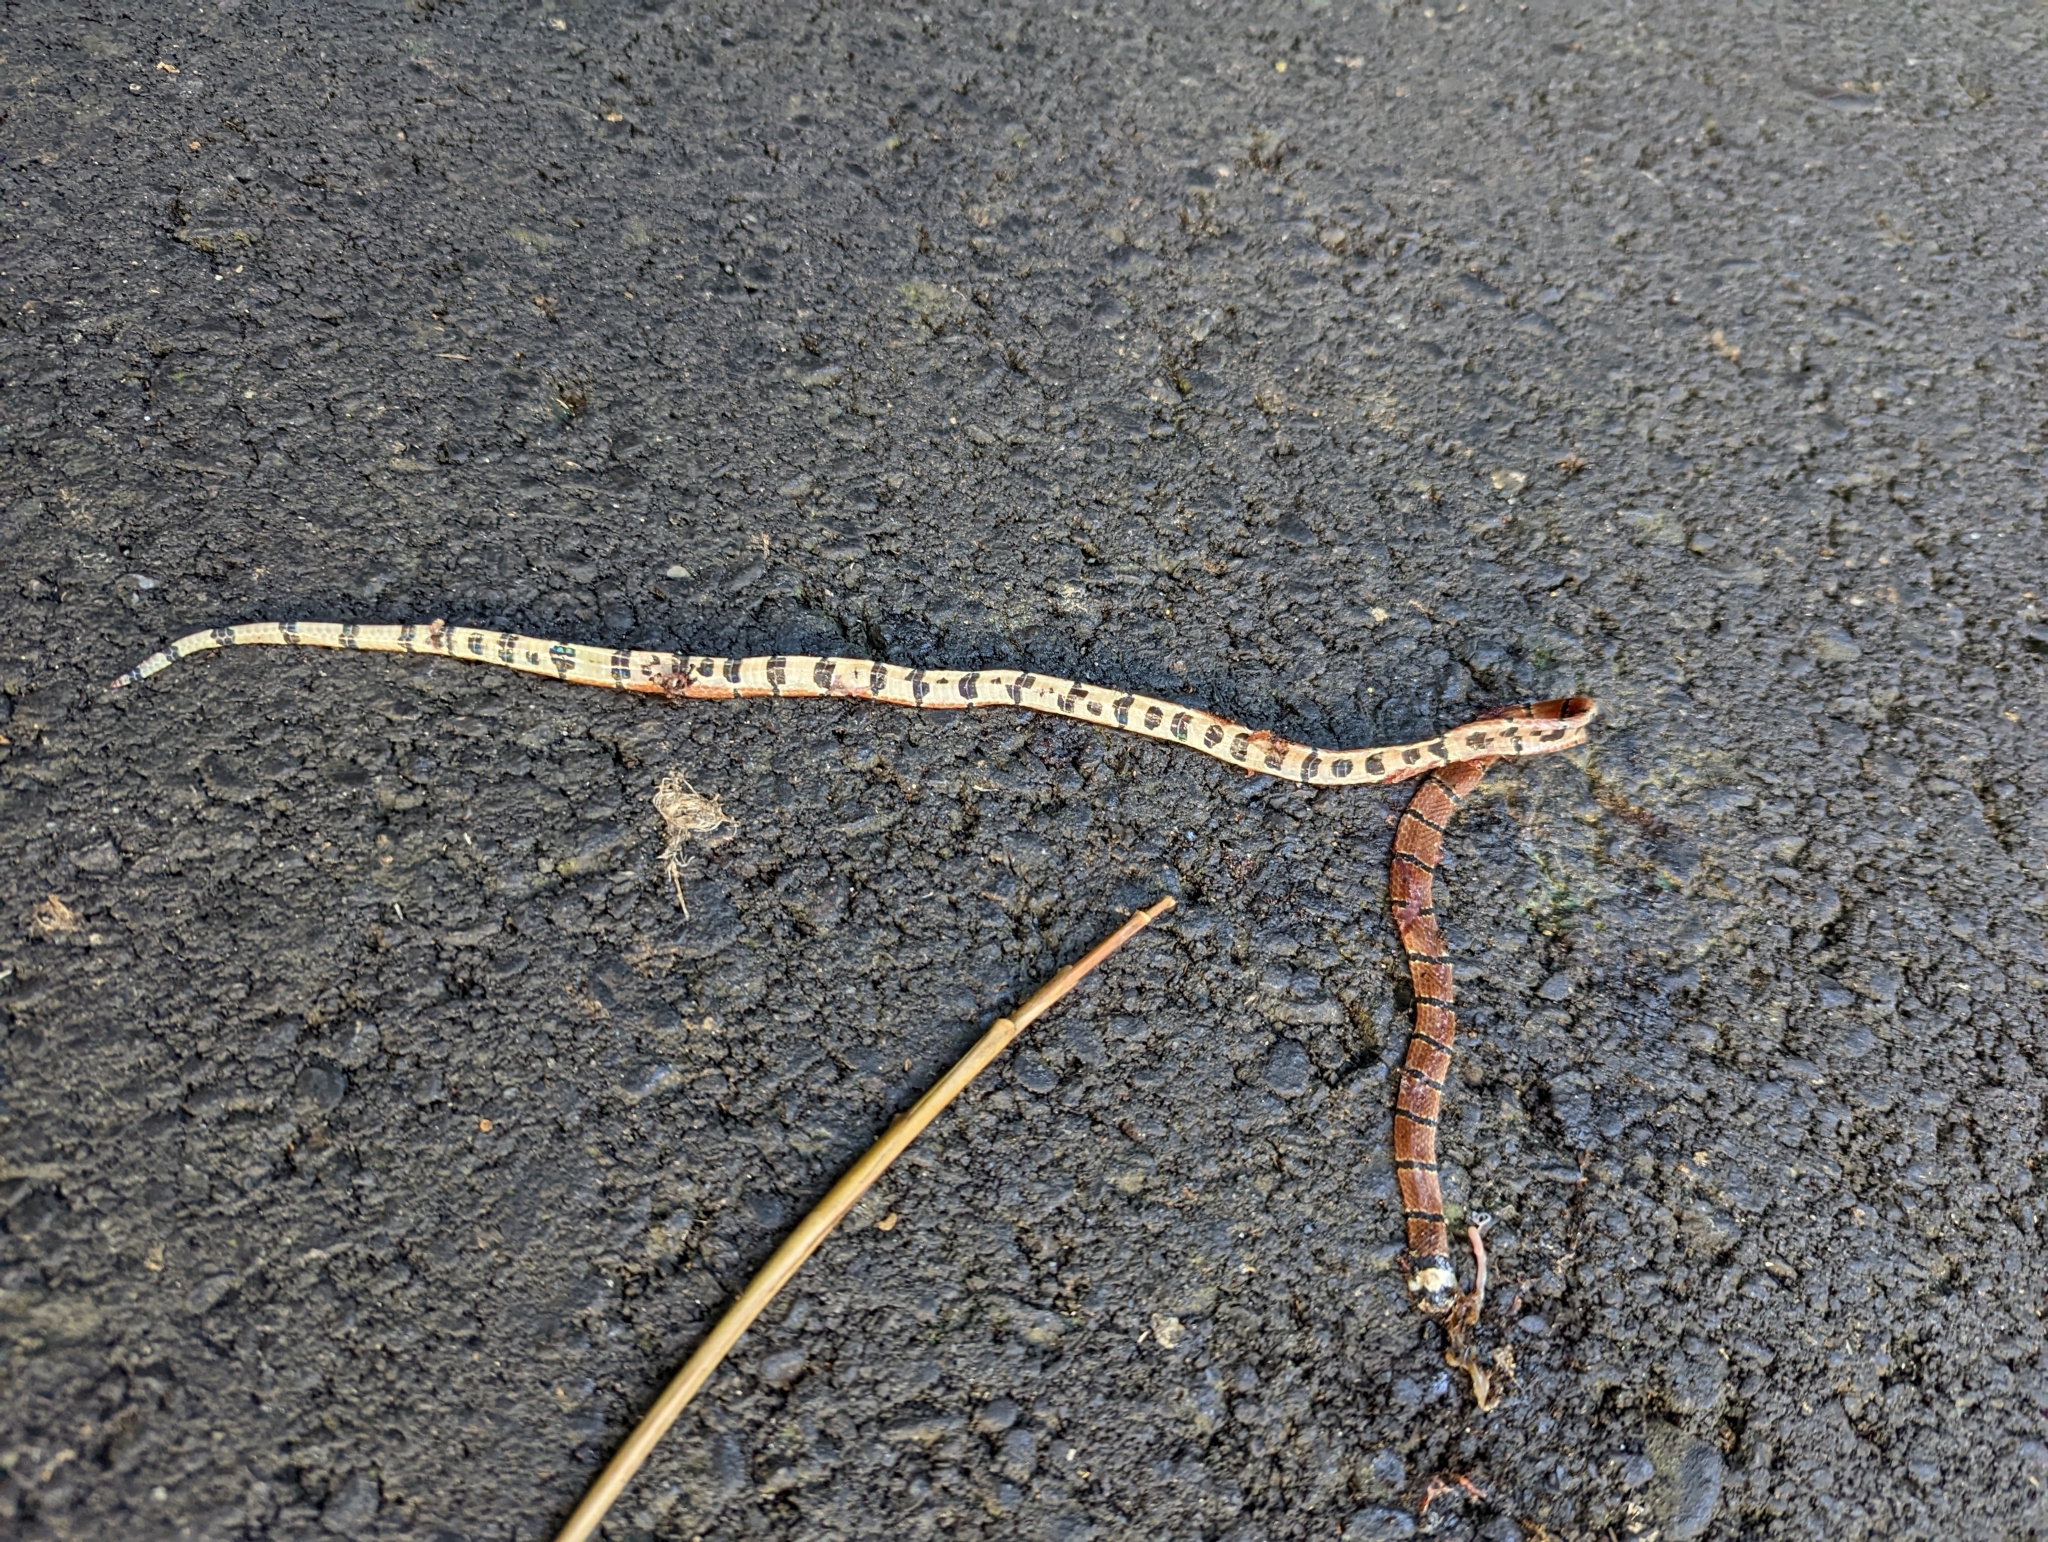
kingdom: Animalia
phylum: Chordata
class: Squamata
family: Elapidae
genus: Sinomicrurus
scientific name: Sinomicrurus swinhoei
